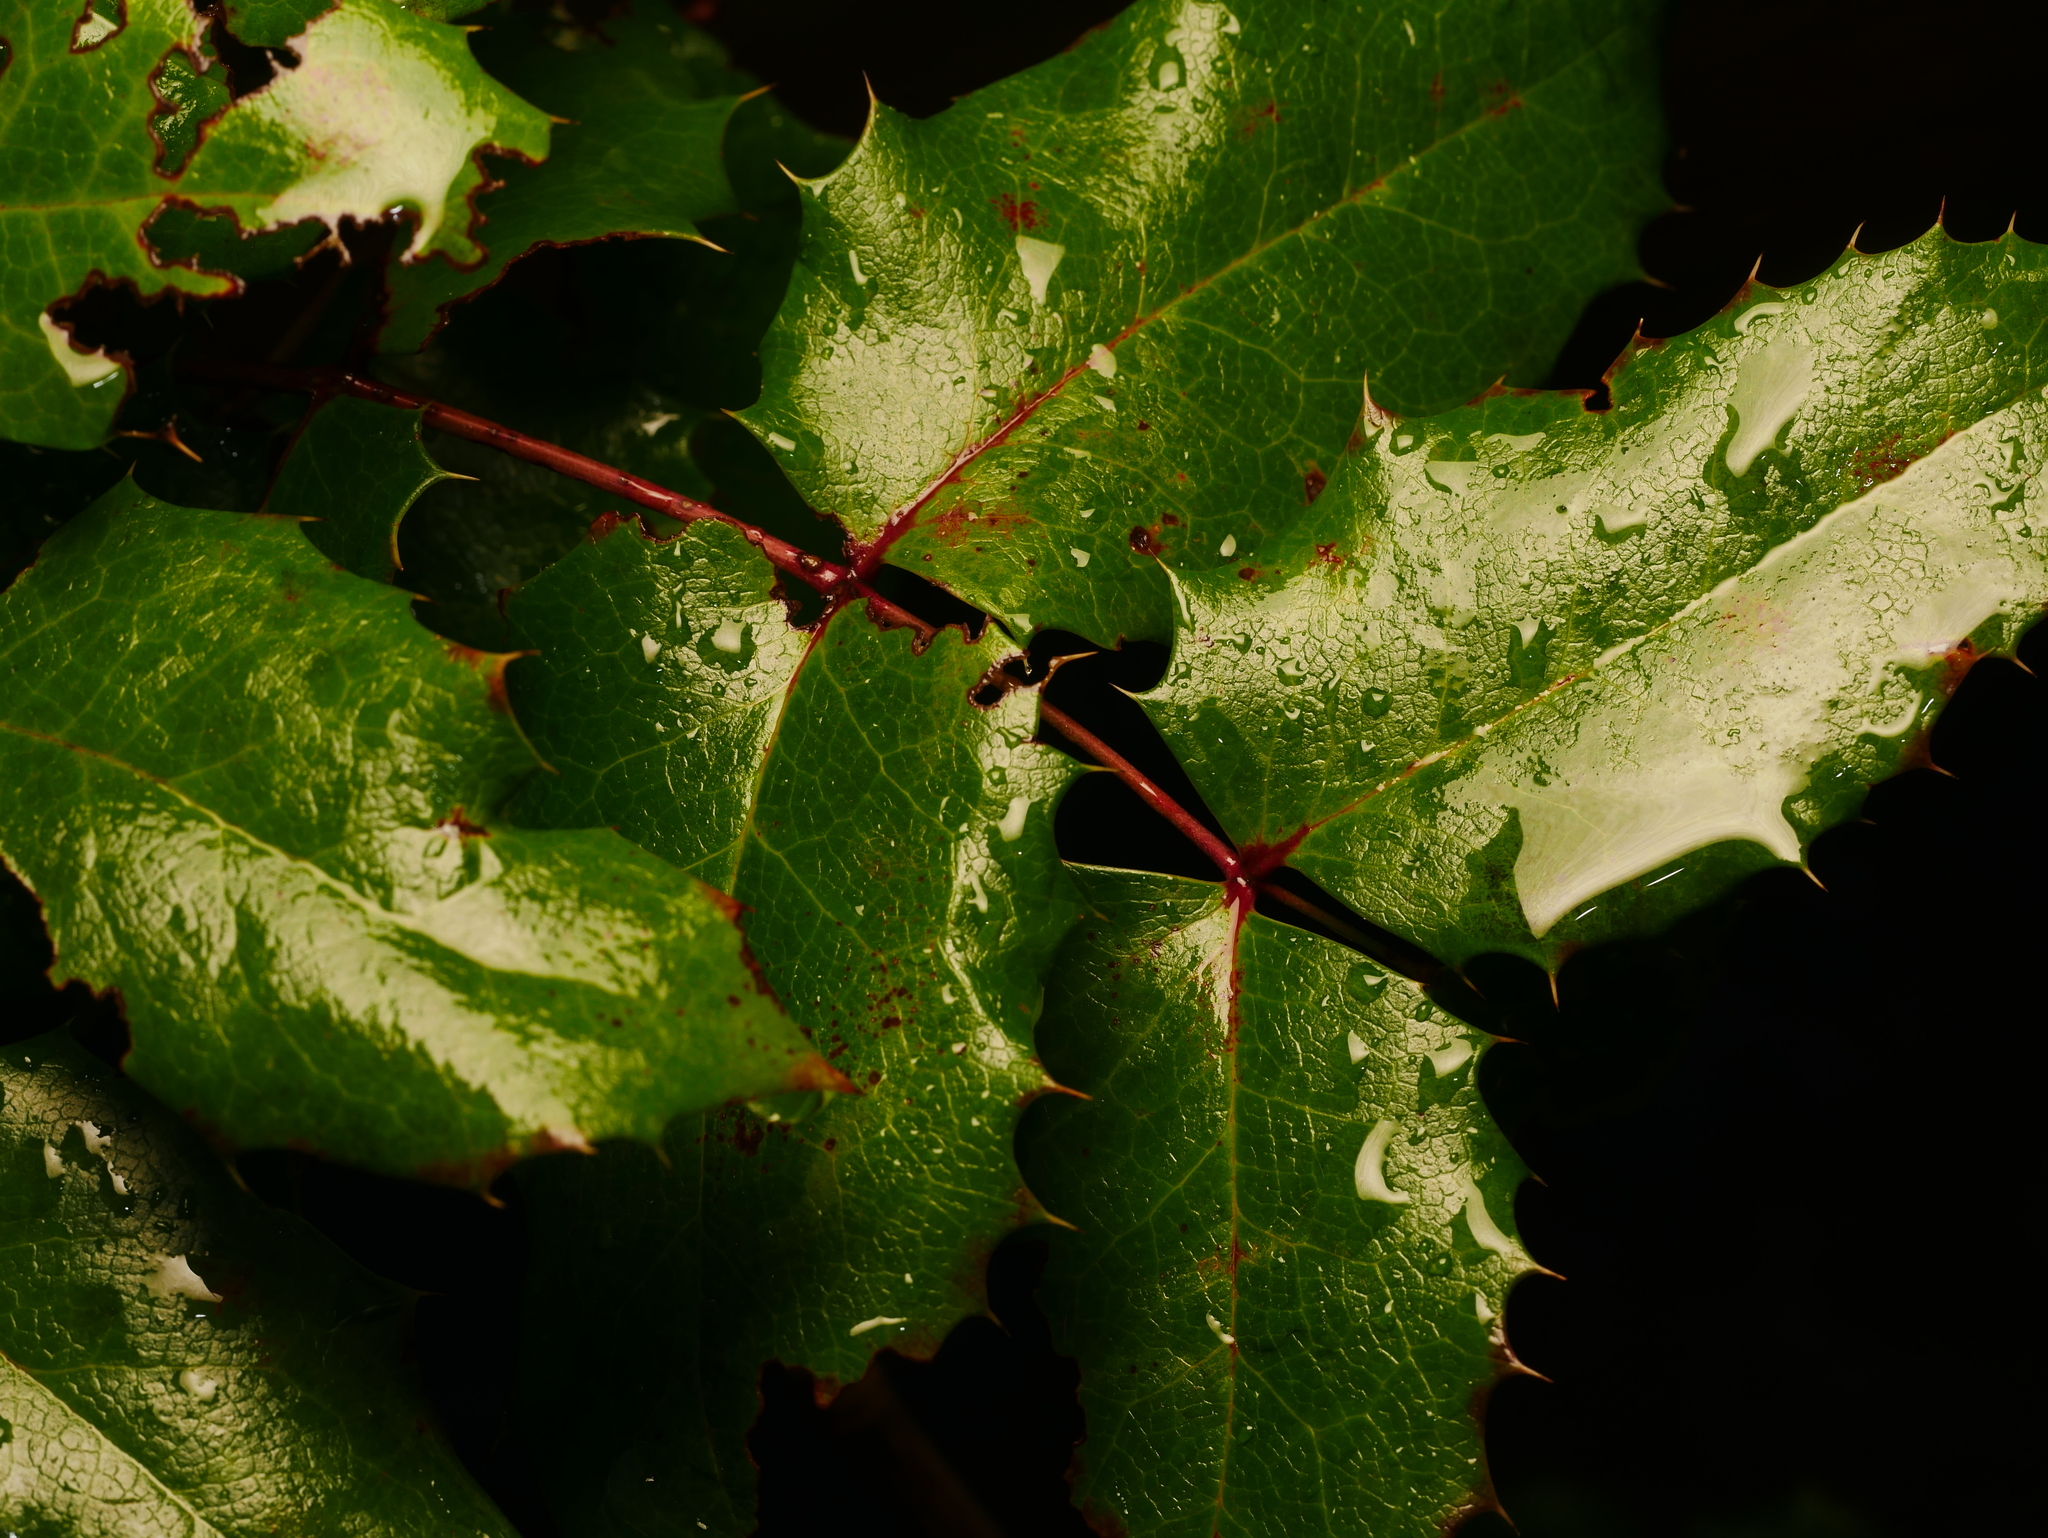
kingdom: Plantae
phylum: Tracheophyta
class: Magnoliopsida
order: Ranunculales
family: Berberidaceae
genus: Mahonia
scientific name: Mahonia aquifolium
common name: Oregon-grape
